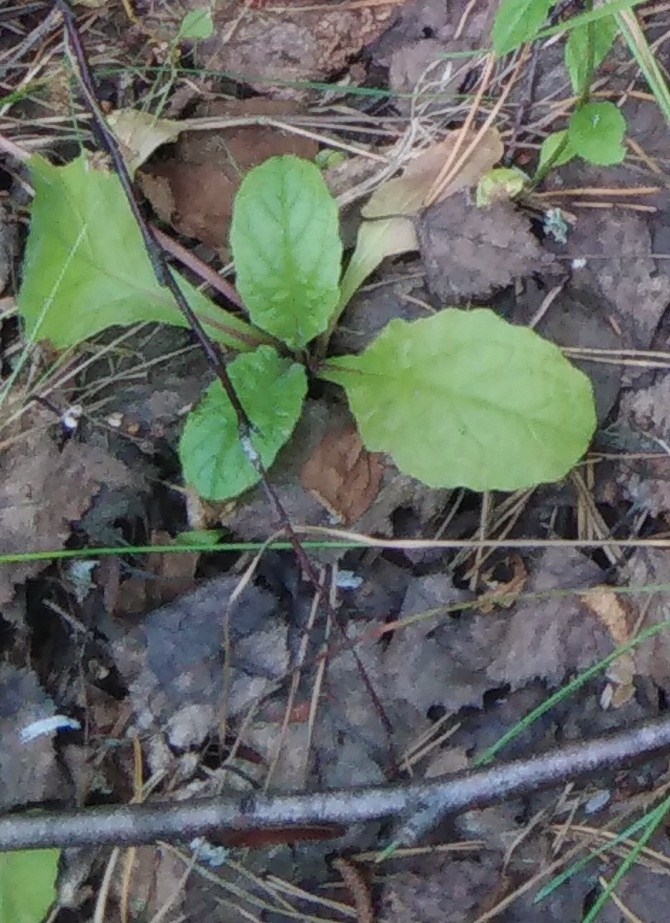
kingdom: Plantae
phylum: Tracheophyta
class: Magnoliopsida
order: Lamiales
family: Lamiaceae
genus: Ajuga
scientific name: Ajuga reptans
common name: Bugle
